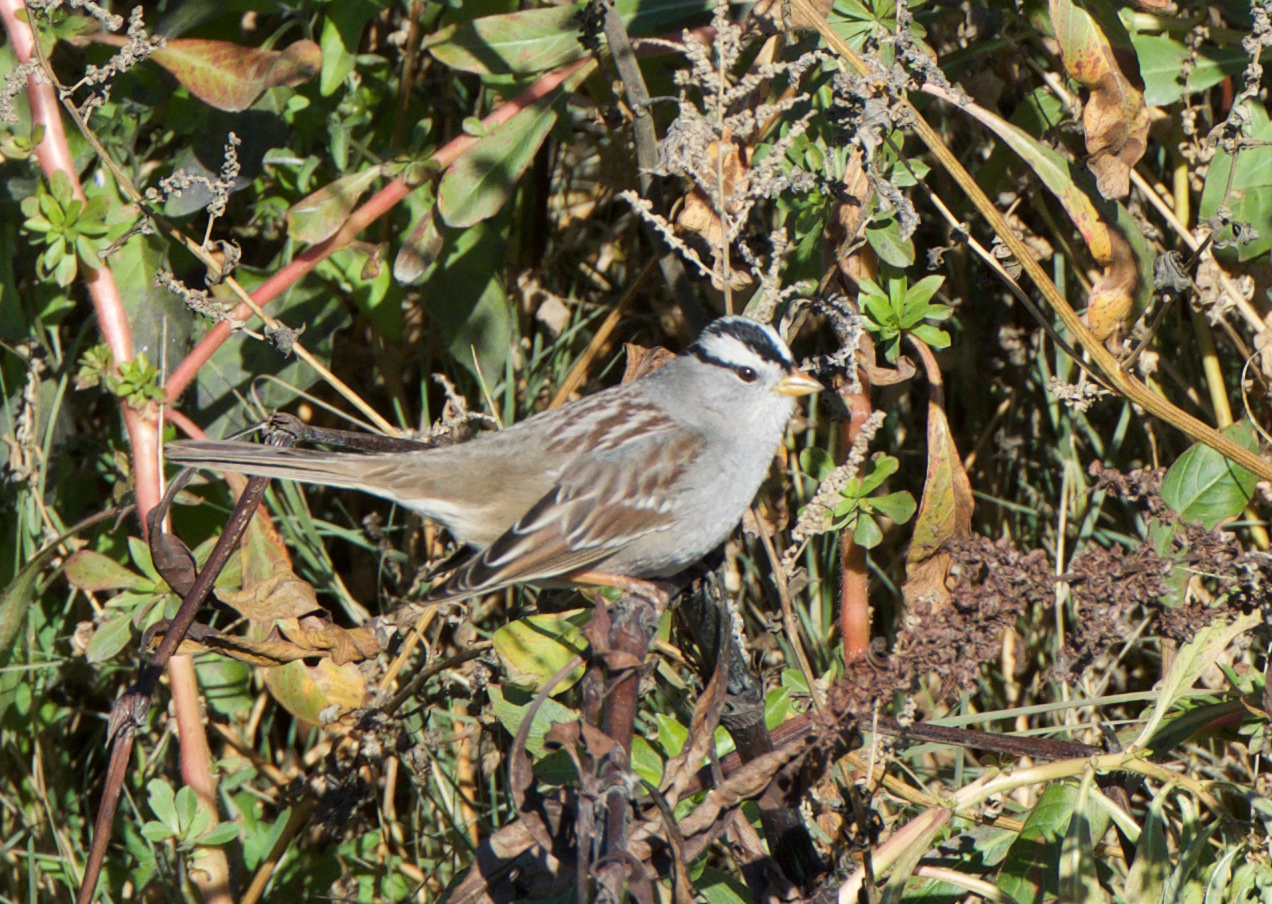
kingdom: Animalia
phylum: Chordata
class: Aves
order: Passeriformes
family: Passerellidae
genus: Zonotrichia
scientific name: Zonotrichia leucophrys
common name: White-crowned sparrow
